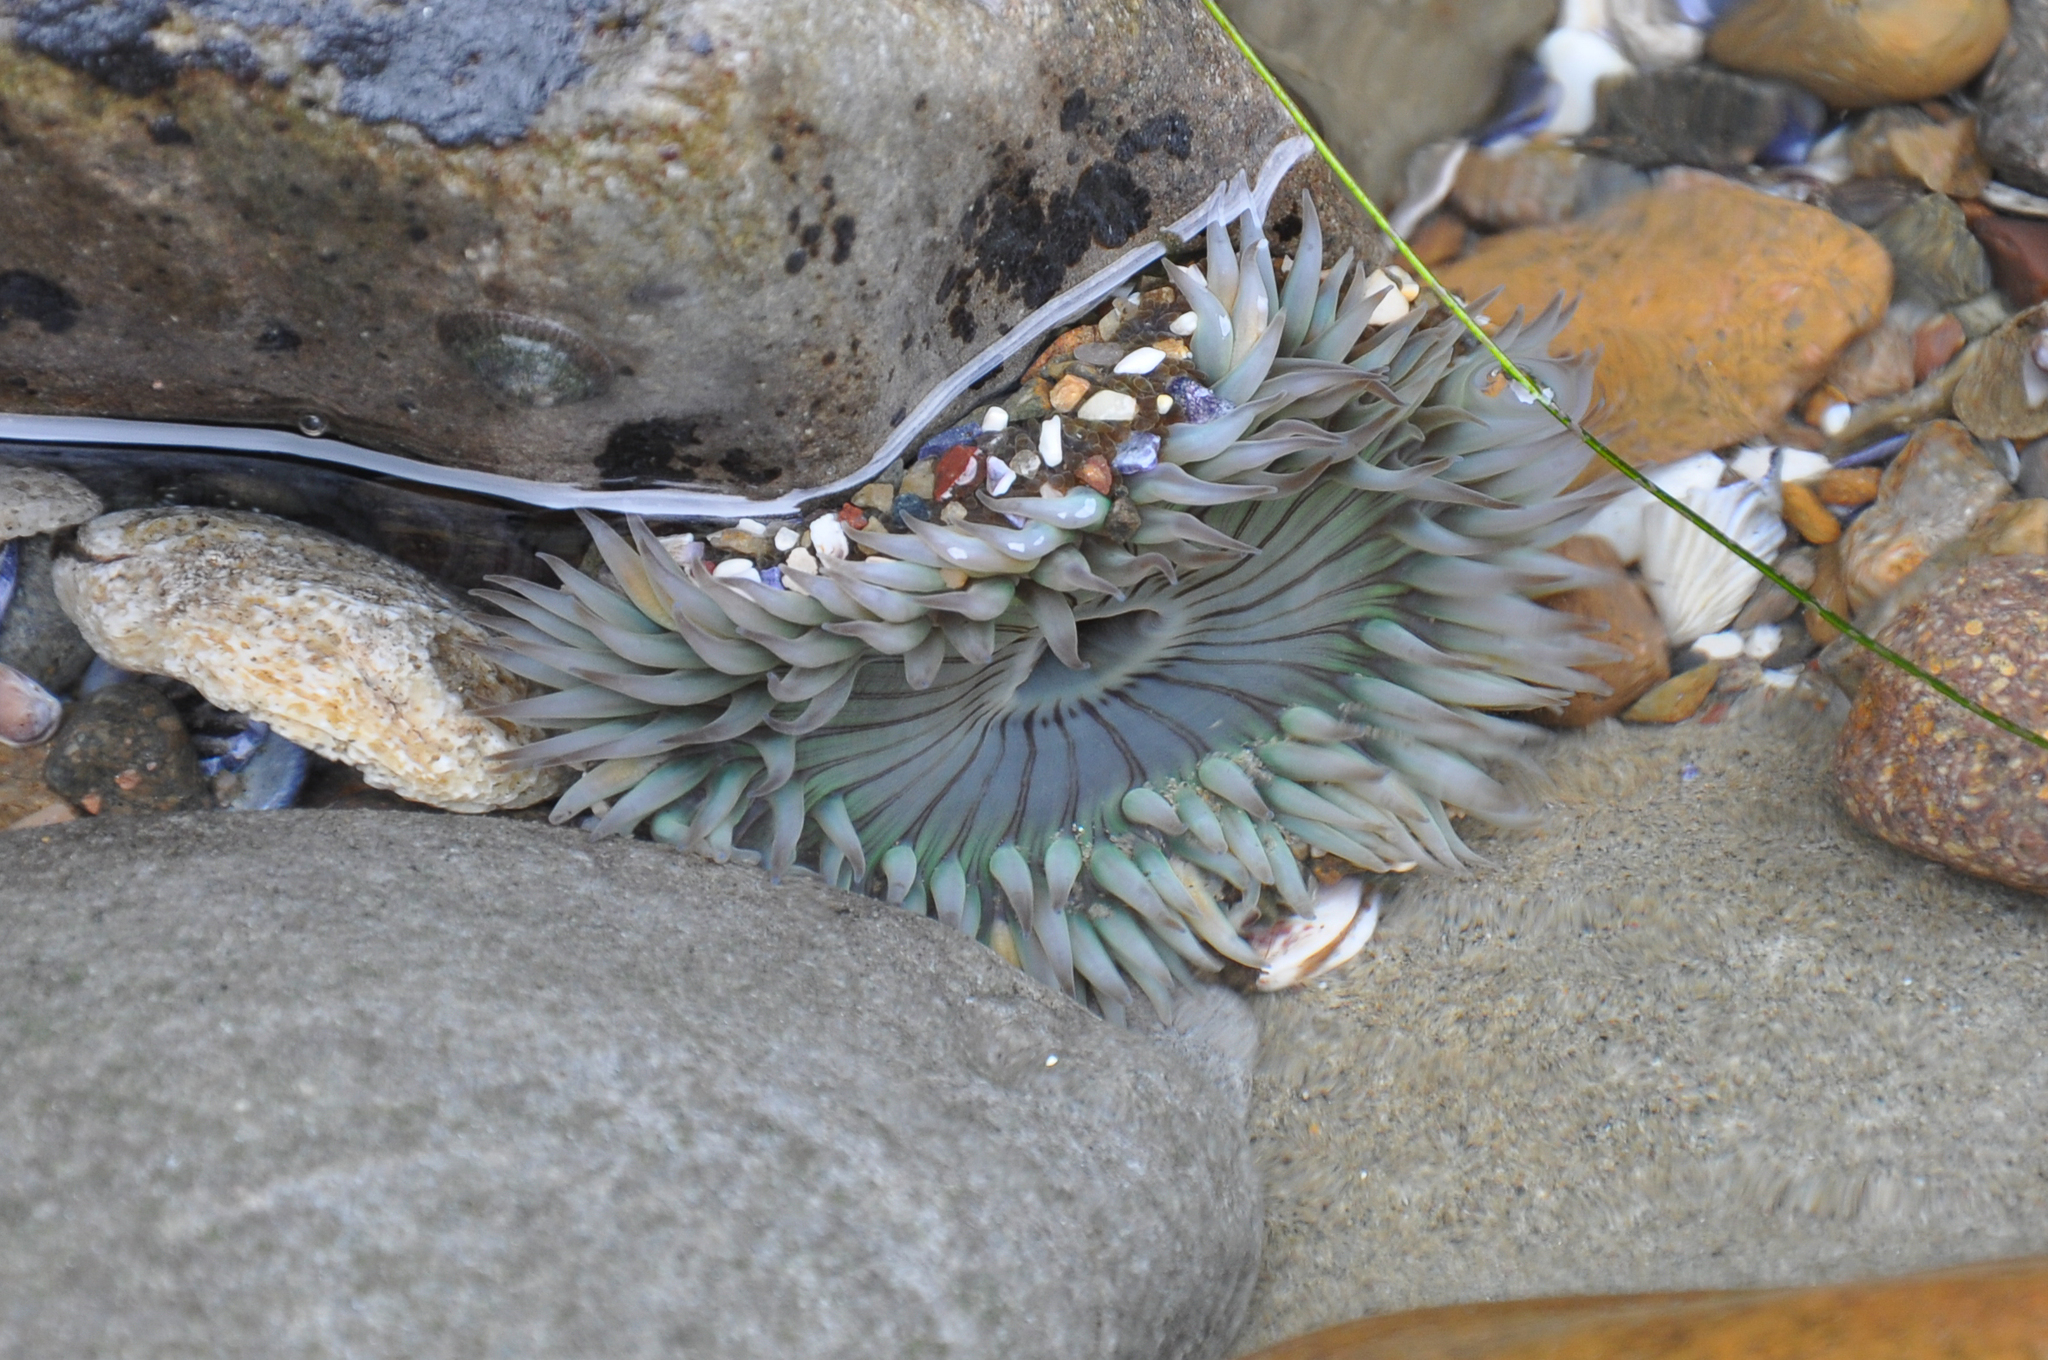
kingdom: Animalia
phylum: Cnidaria
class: Anthozoa
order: Actiniaria
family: Actiniidae
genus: Anthopleura
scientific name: Anthopleura sola
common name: Sun anemone
